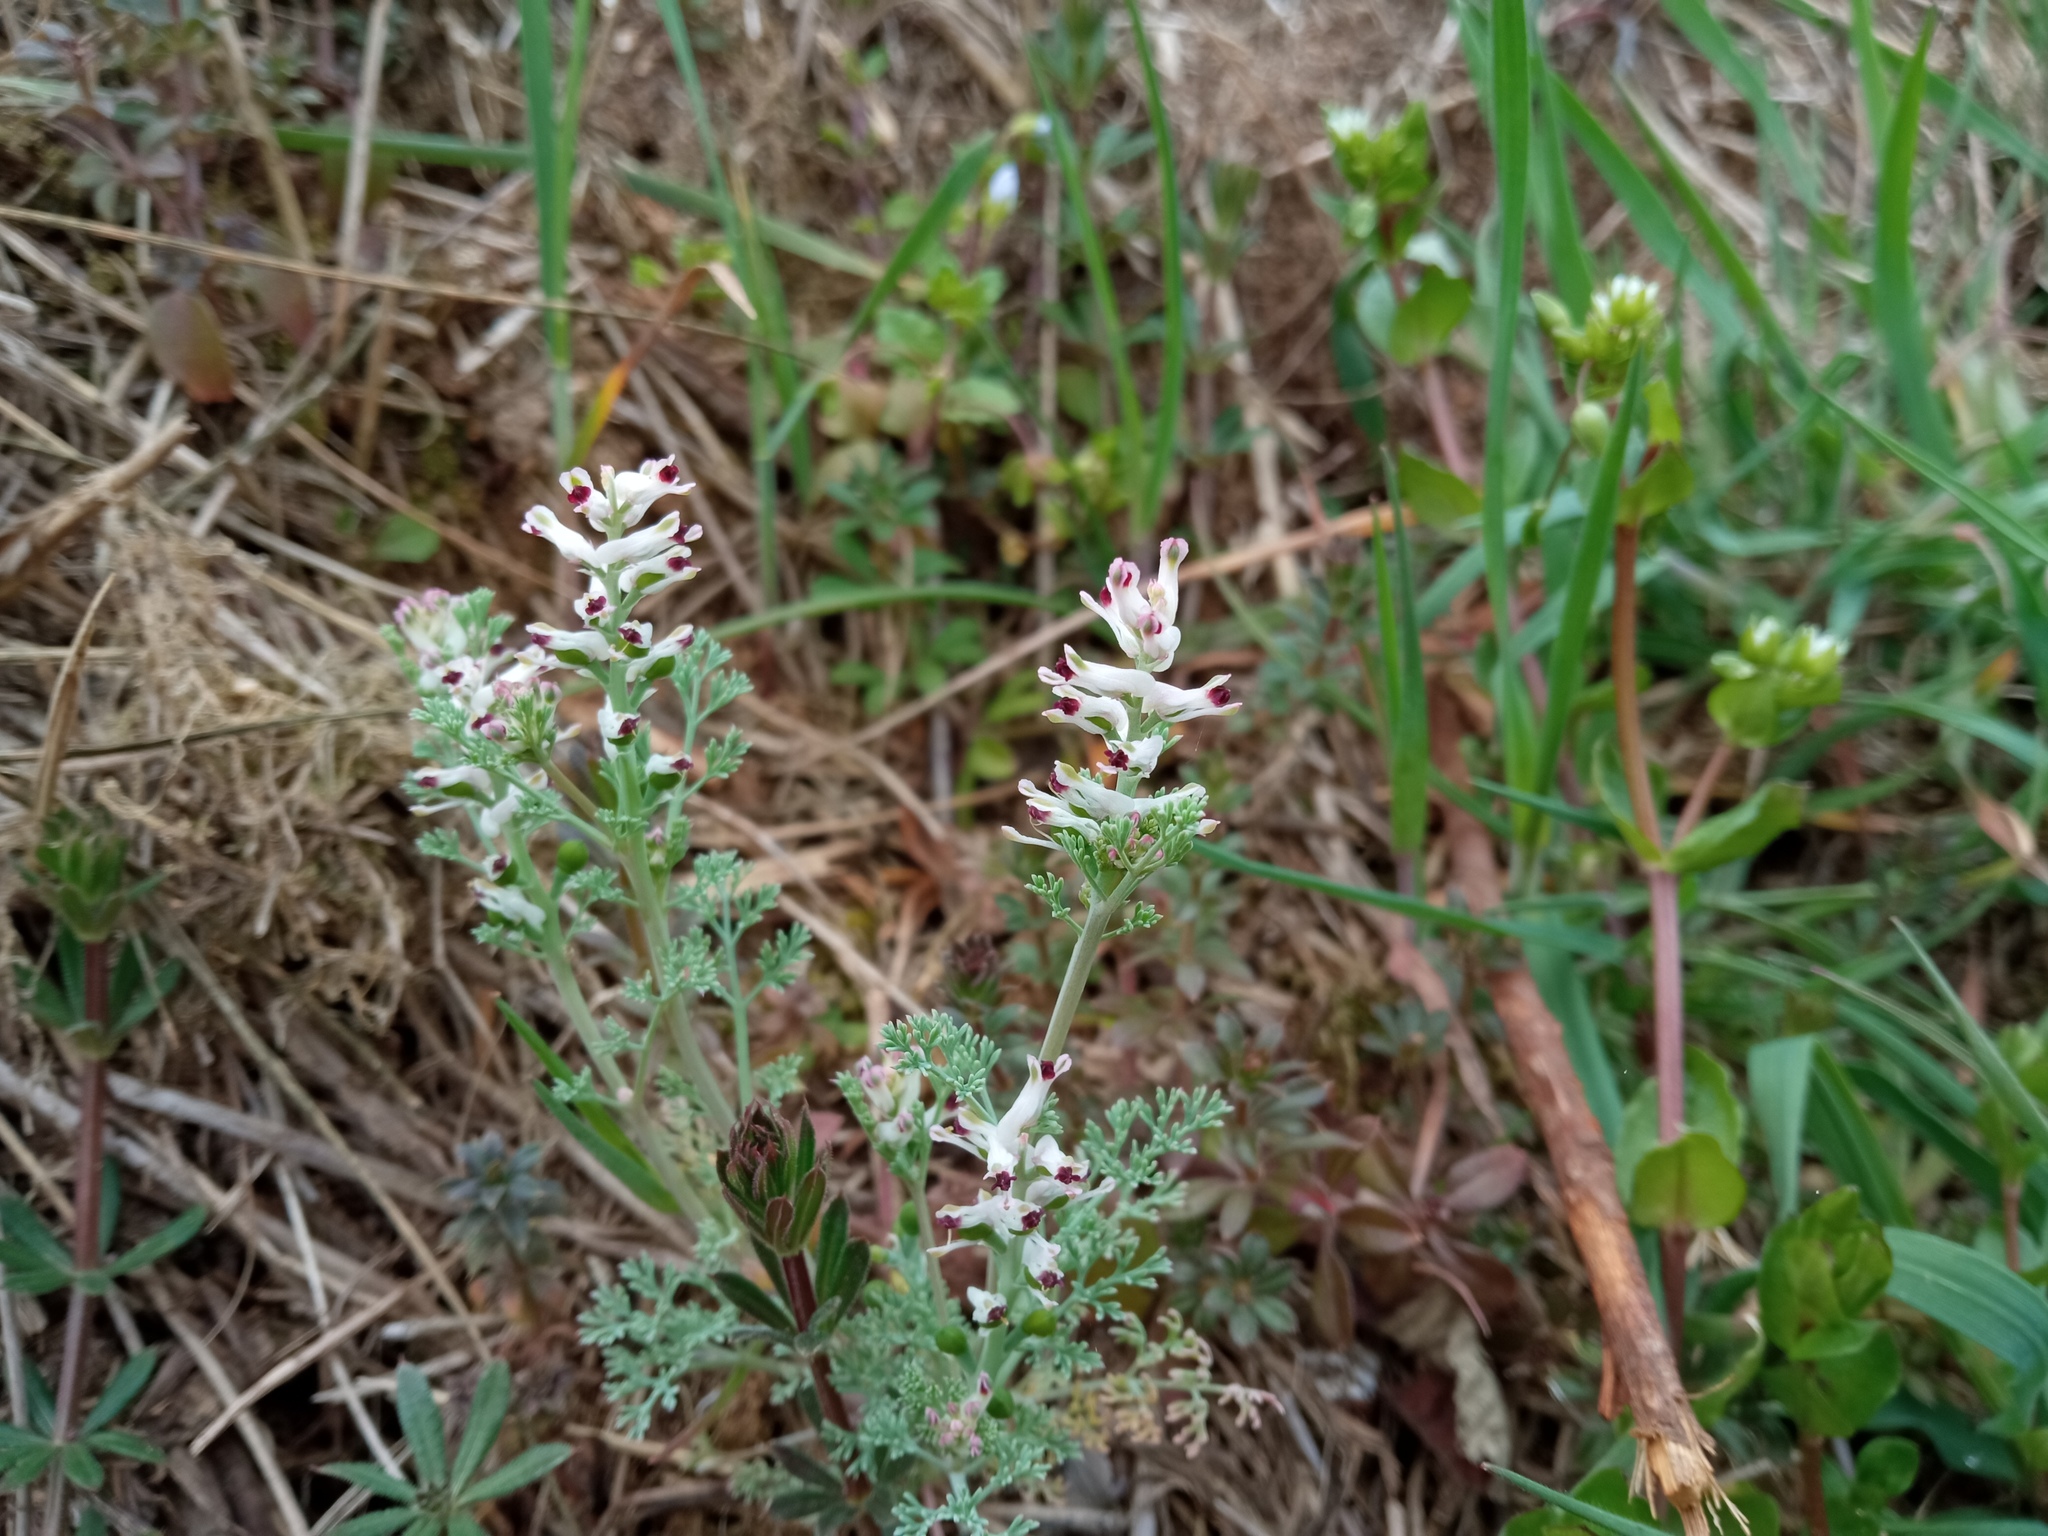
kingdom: Plantae
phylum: Tracheophyta
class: Magnoliopsida
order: Ranunculales
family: Papaveraceae
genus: Fumaria
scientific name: Fumaria parviflora
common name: Fine-leaved fumitory
